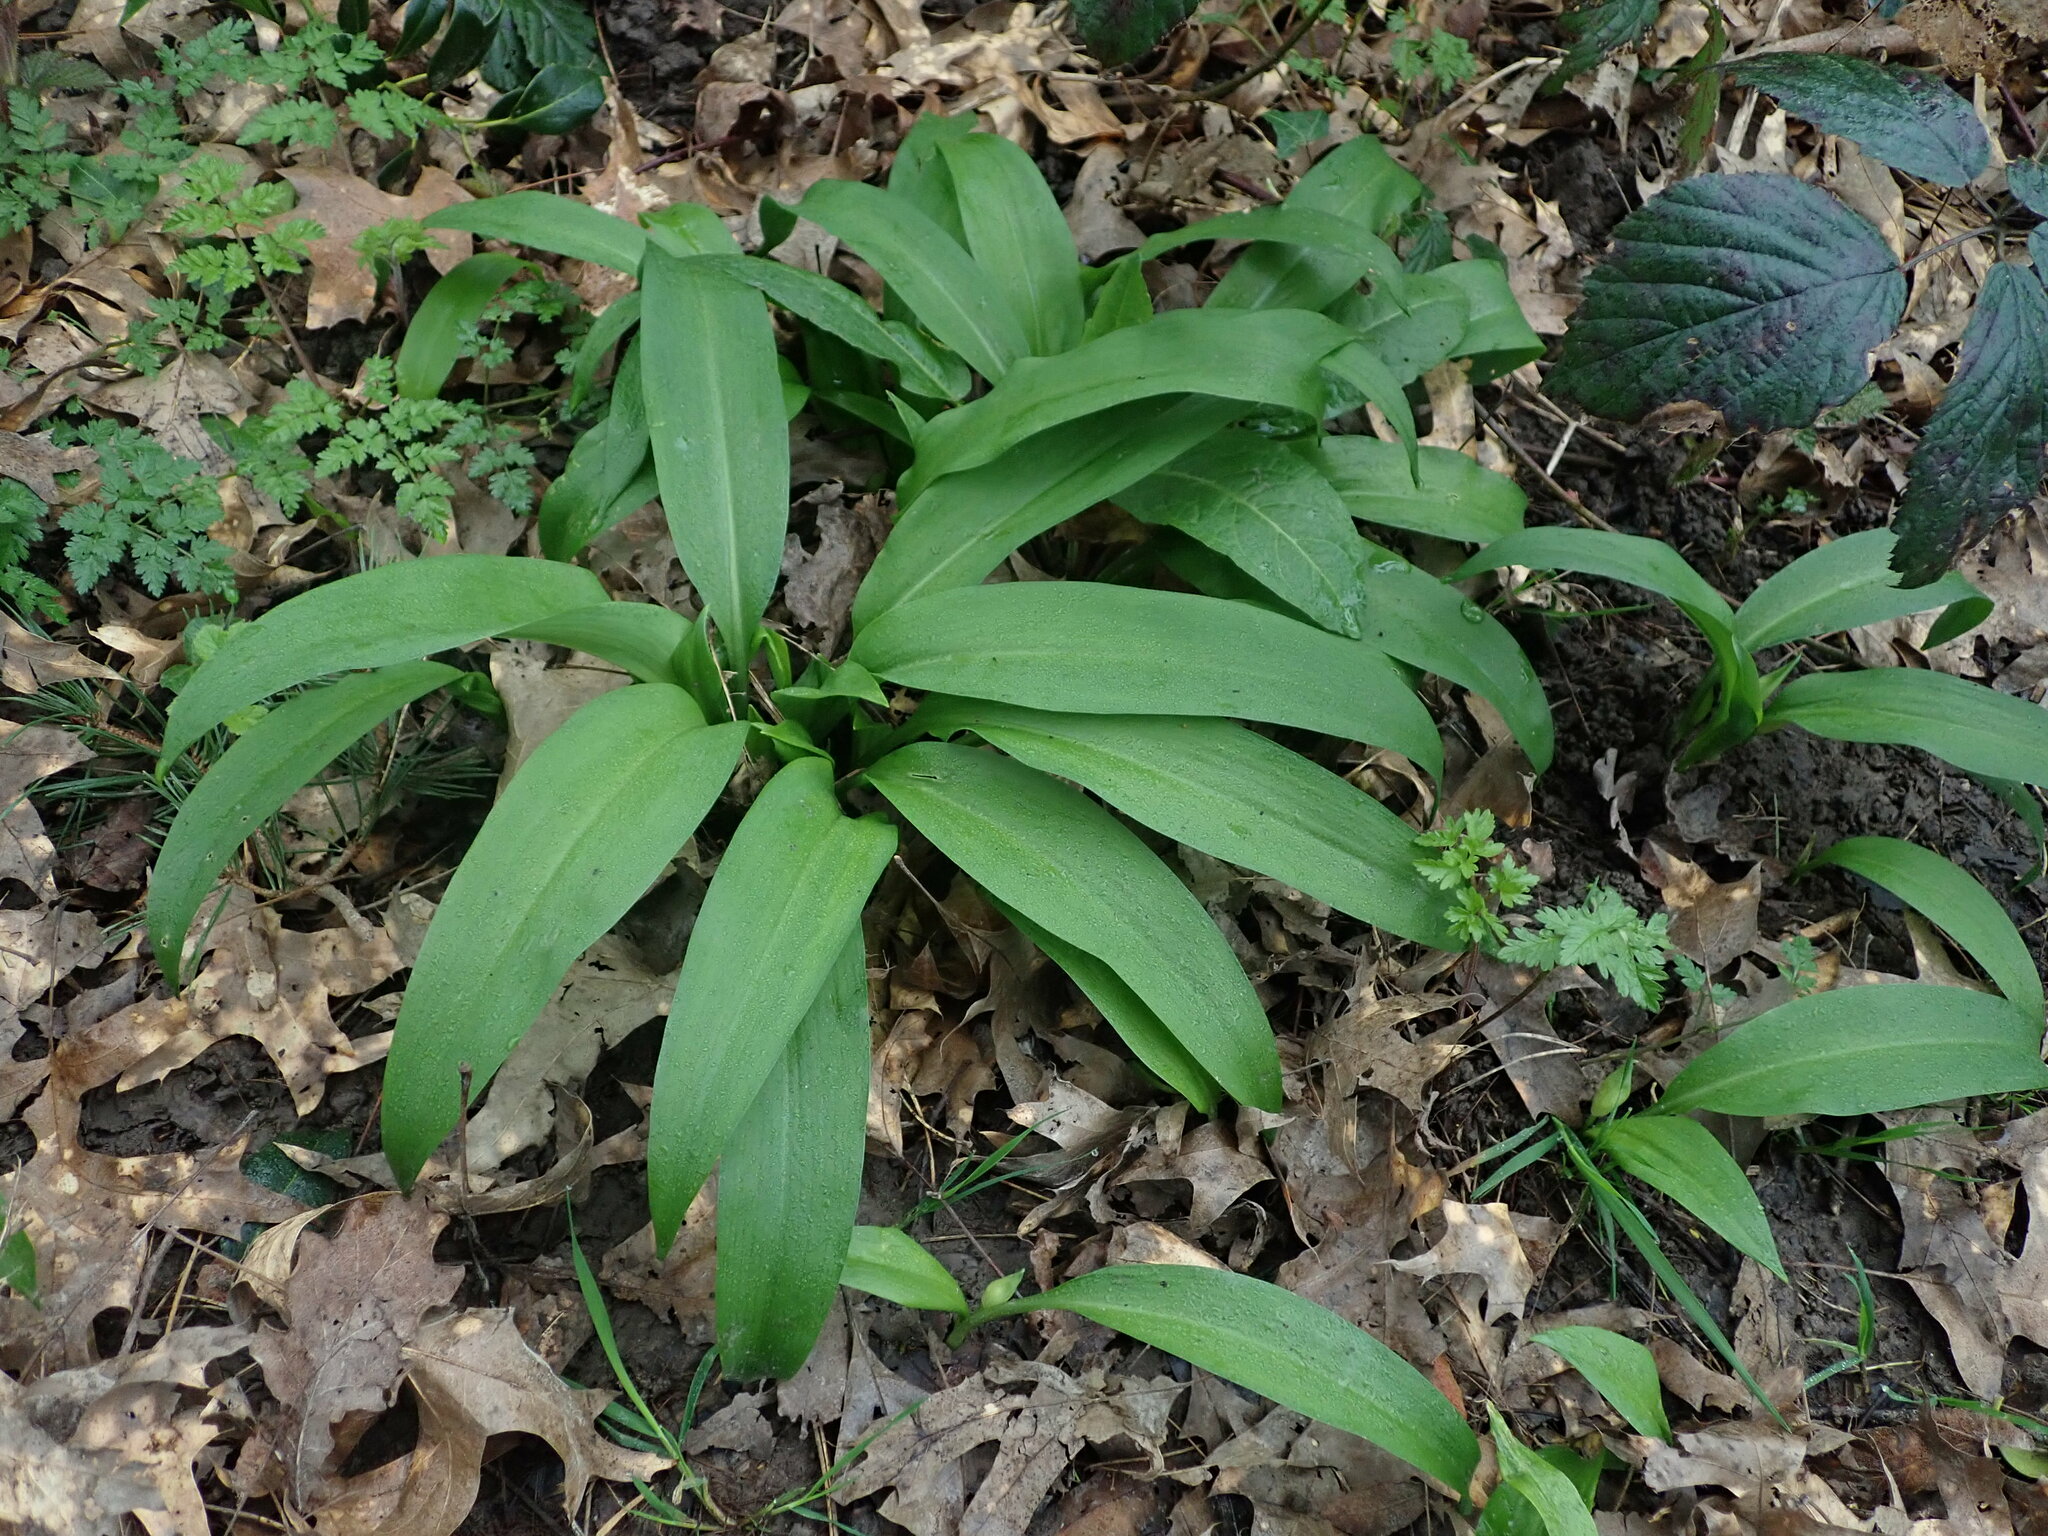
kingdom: Plantae
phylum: Tracheophyta
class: Liliopsida
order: Asparagales
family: Amaryllidaceae
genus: Allium
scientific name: Allium ursinum
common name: Ramsons
